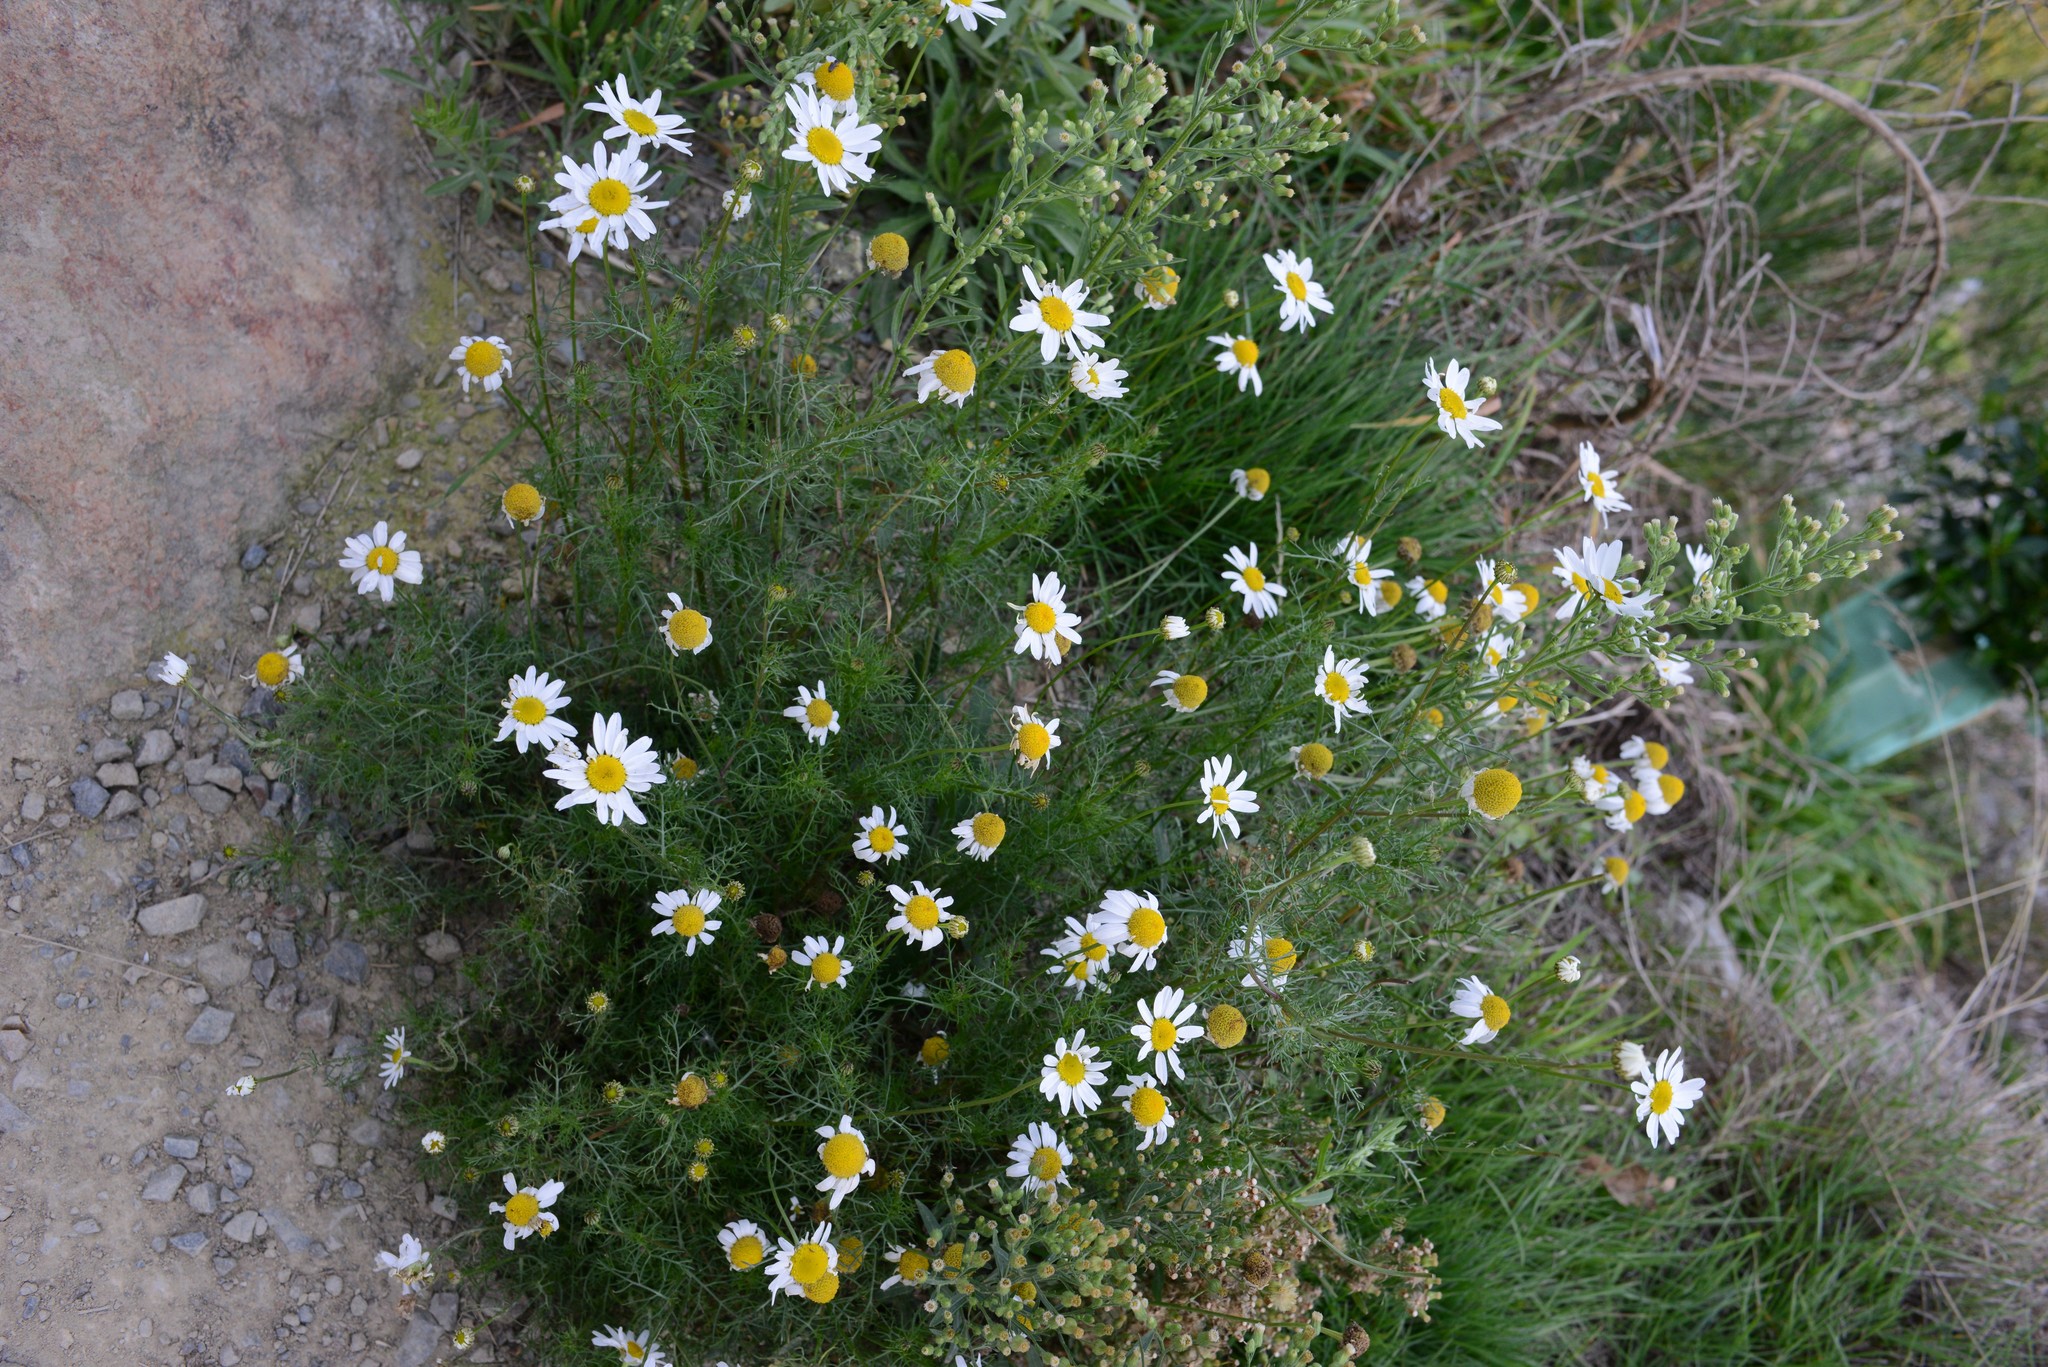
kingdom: Plantae
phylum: Tracheophyta
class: Magnoliopsida
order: Asterales
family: Asteraceae
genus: Tripleurospermum
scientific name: Tripleurospermum inodorum
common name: Scentless mayweed
